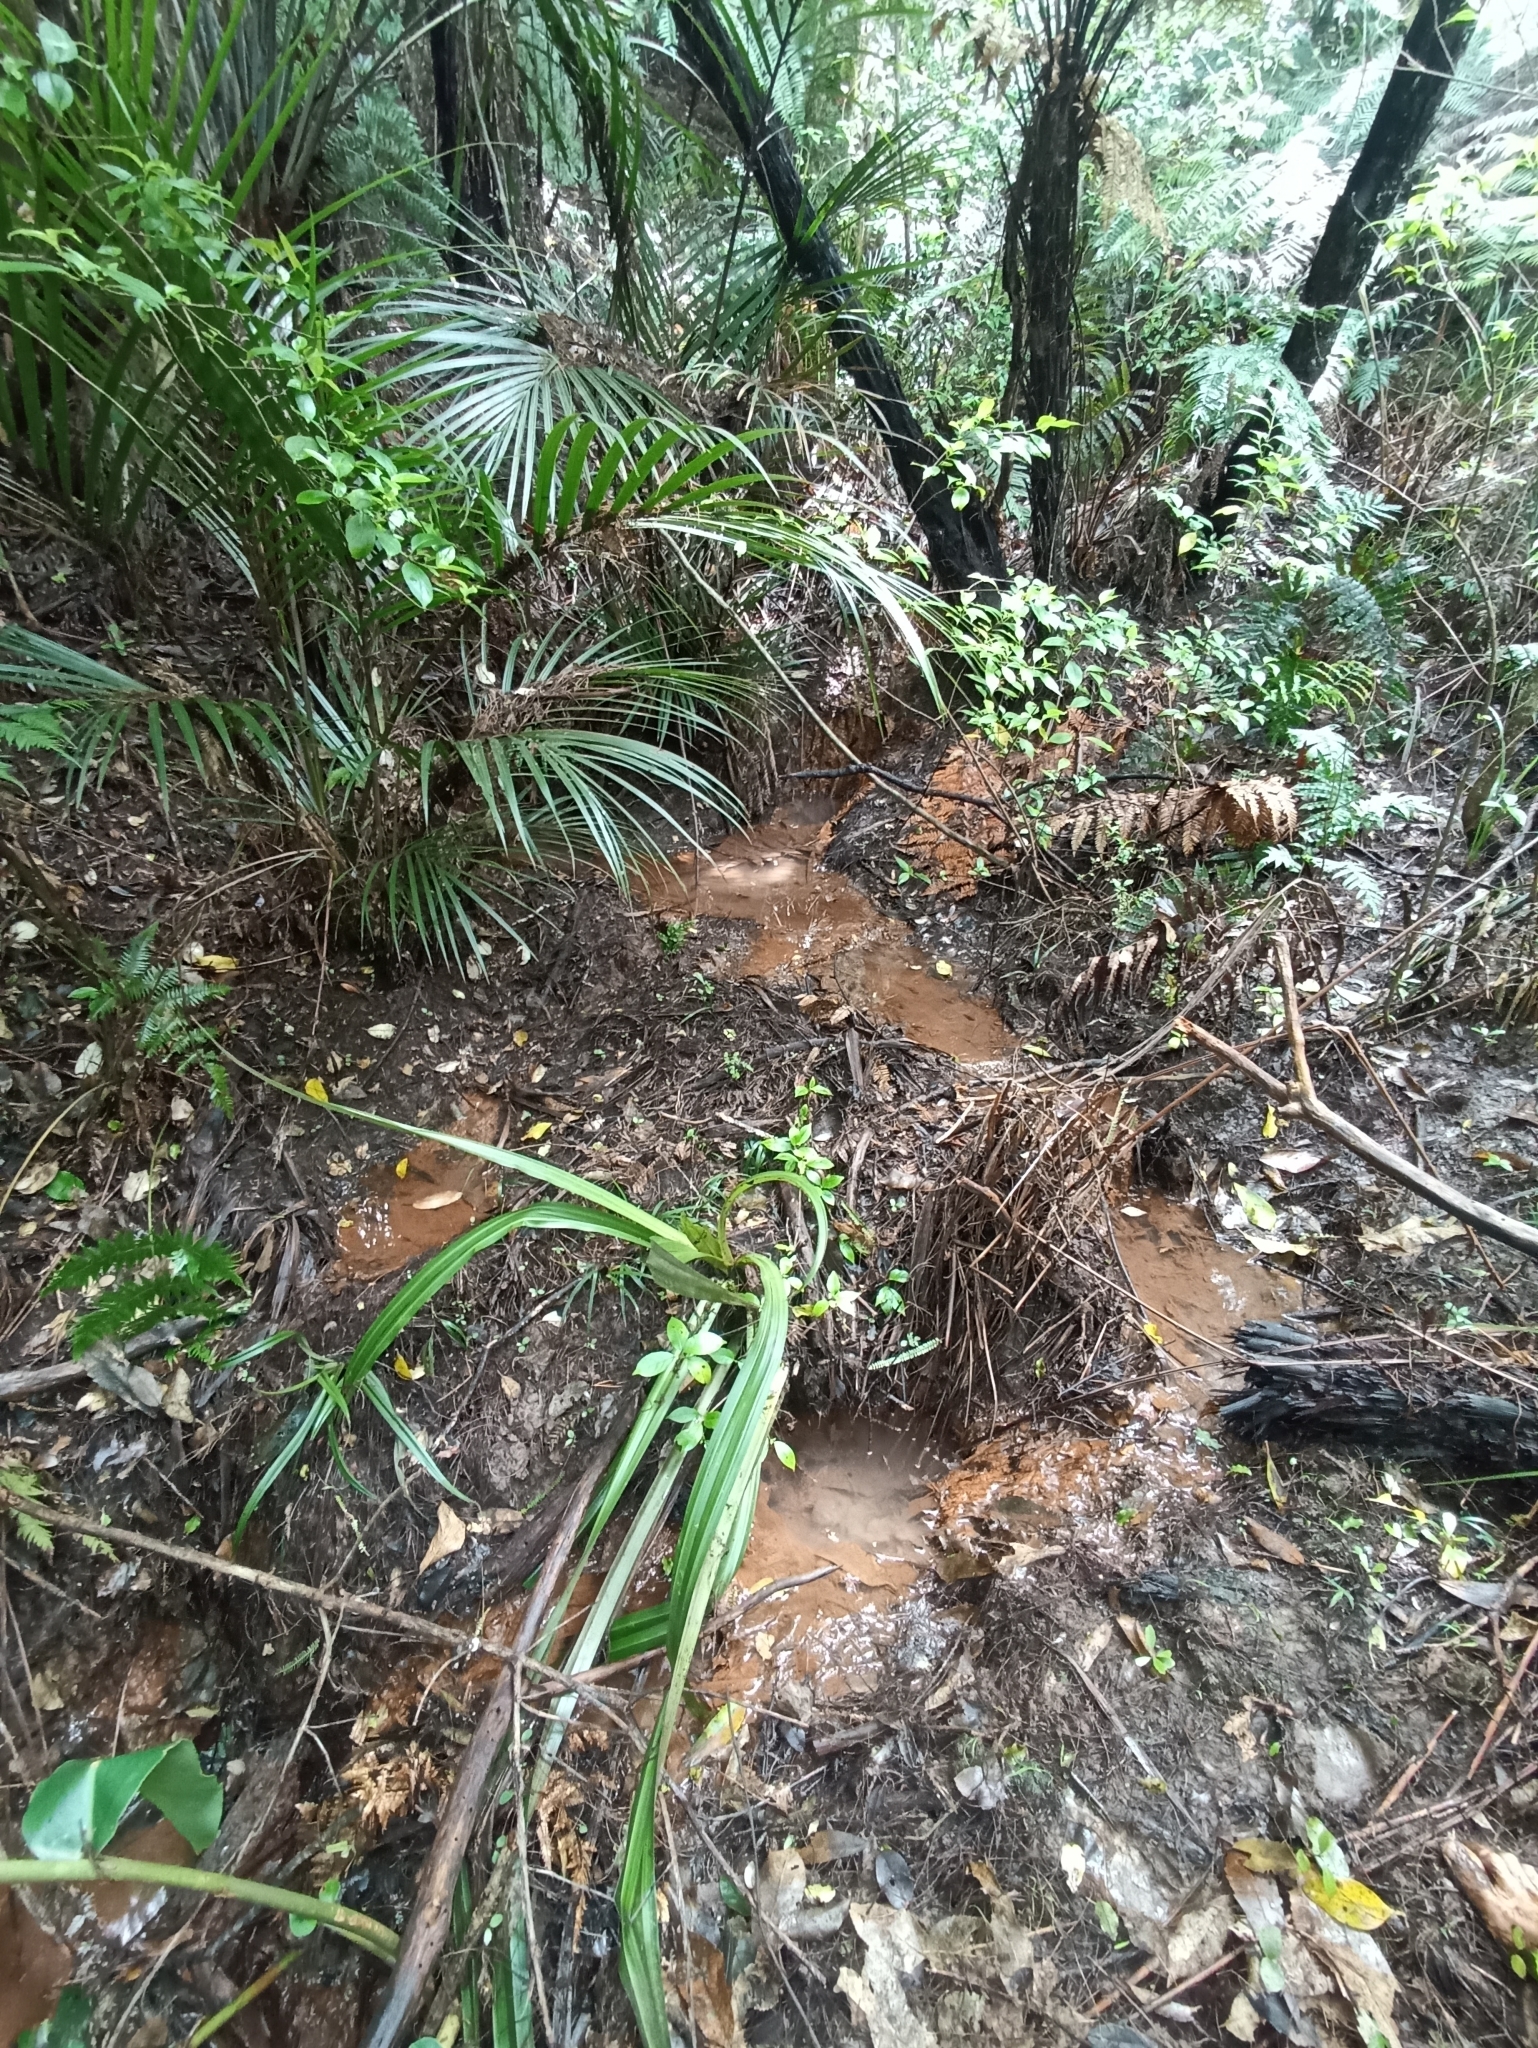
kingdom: Plantae
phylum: Tracheophyta
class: Liliopsida
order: Asparagales
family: Asteliaceae
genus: Astelia
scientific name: Astelia grandis
